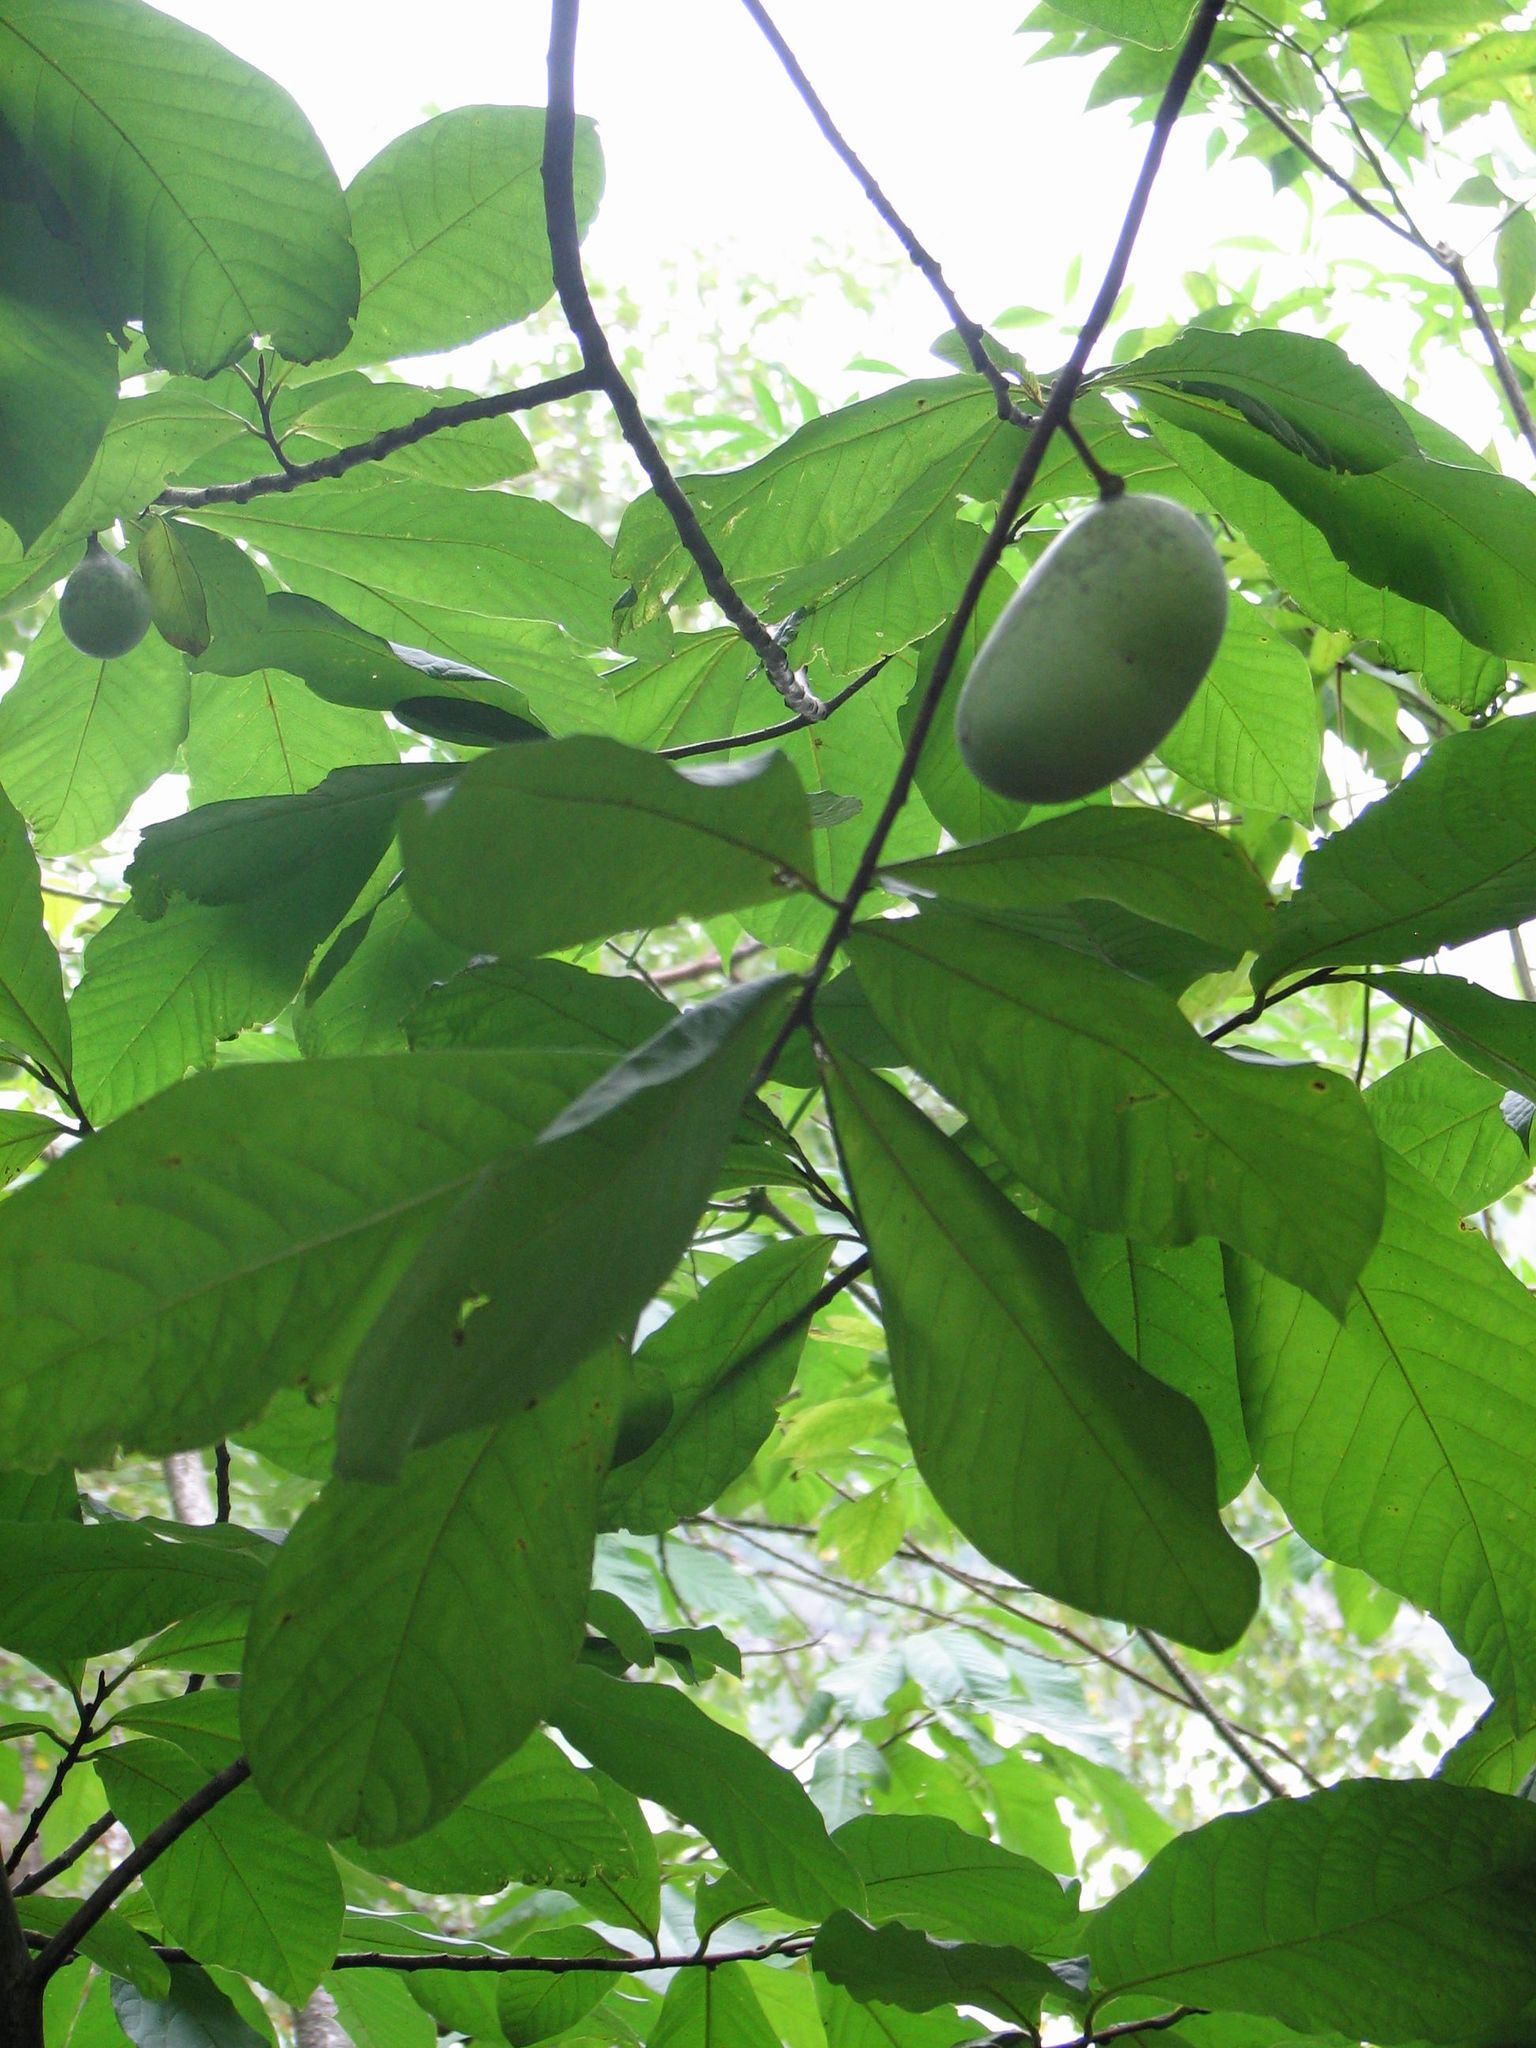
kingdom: Plantae
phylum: Tracheophyta
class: Magnoliopsida
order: Magnoliales
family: Annonaceae
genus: Asimina
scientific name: Asimina triloba
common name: Dog-banana
